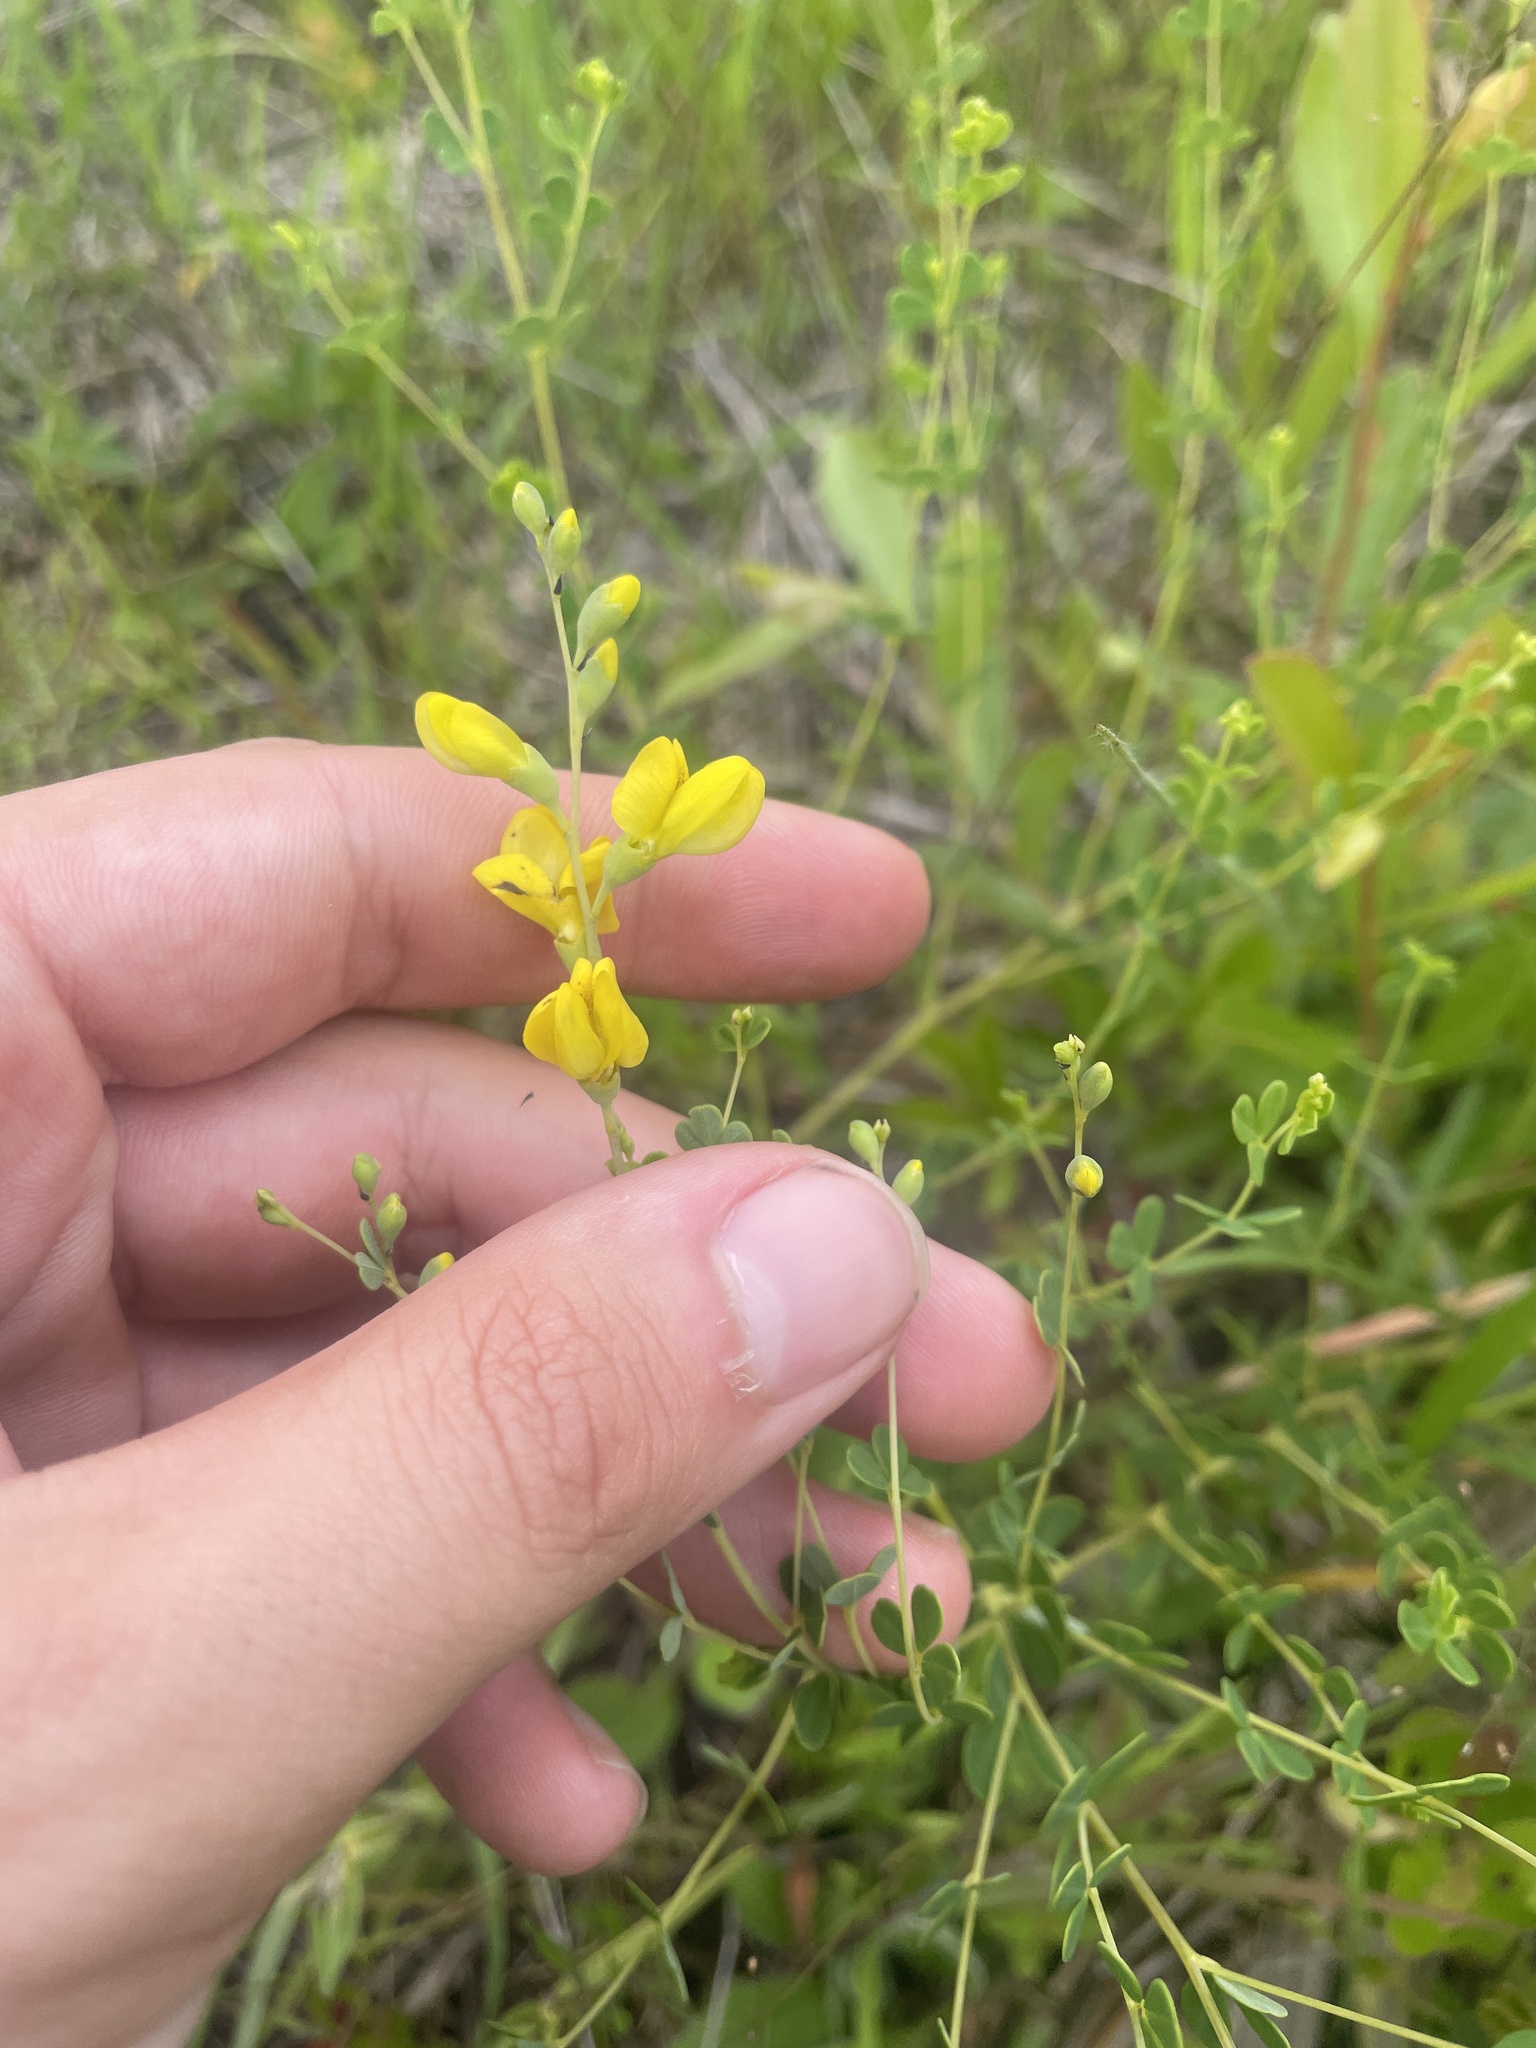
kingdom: Plantae
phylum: Tracheophyta
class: Magnoliopsida
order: Fabales
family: Fabaceae
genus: Baptisia
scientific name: Baptisia tinctoria
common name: Wild indigo
